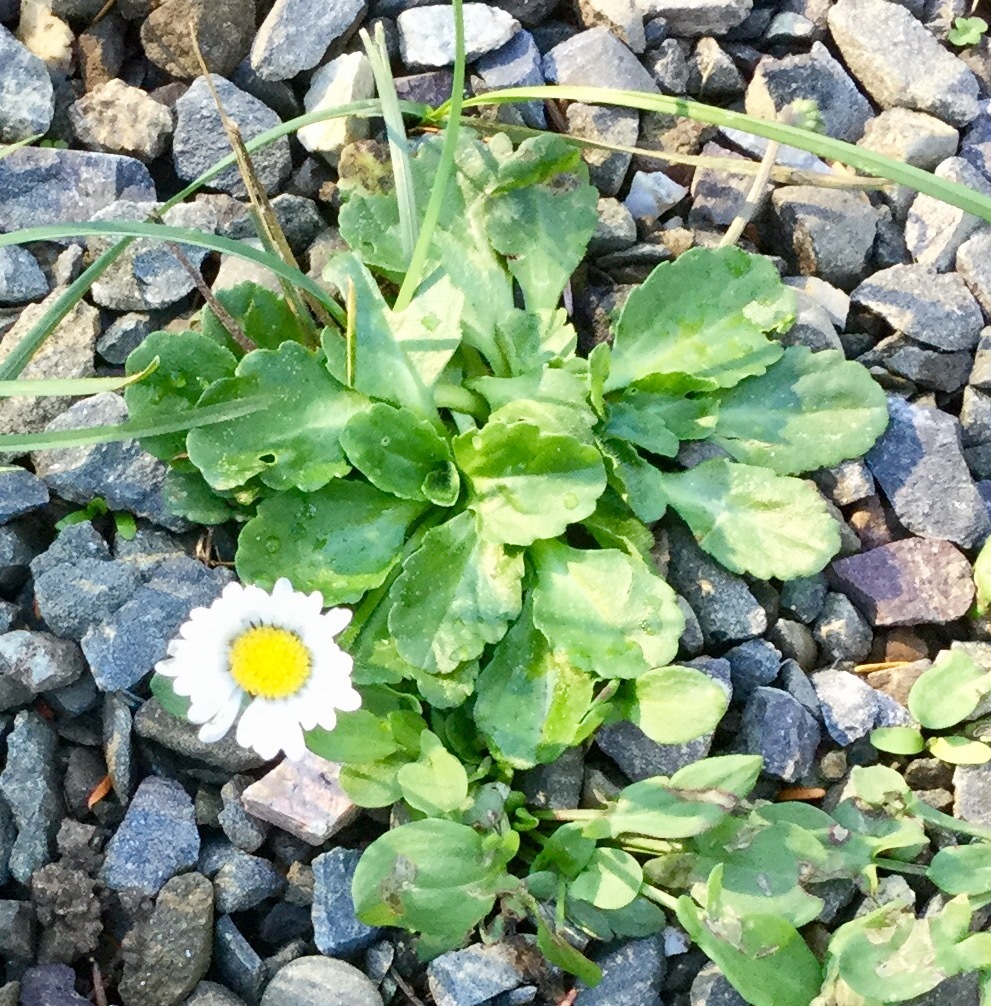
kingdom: Plantae
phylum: Tracheophyta
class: Magnoliopsida
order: Asterales
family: Asteraceae
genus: Bellis
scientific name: Bellis perennis
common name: Lawndaisy
